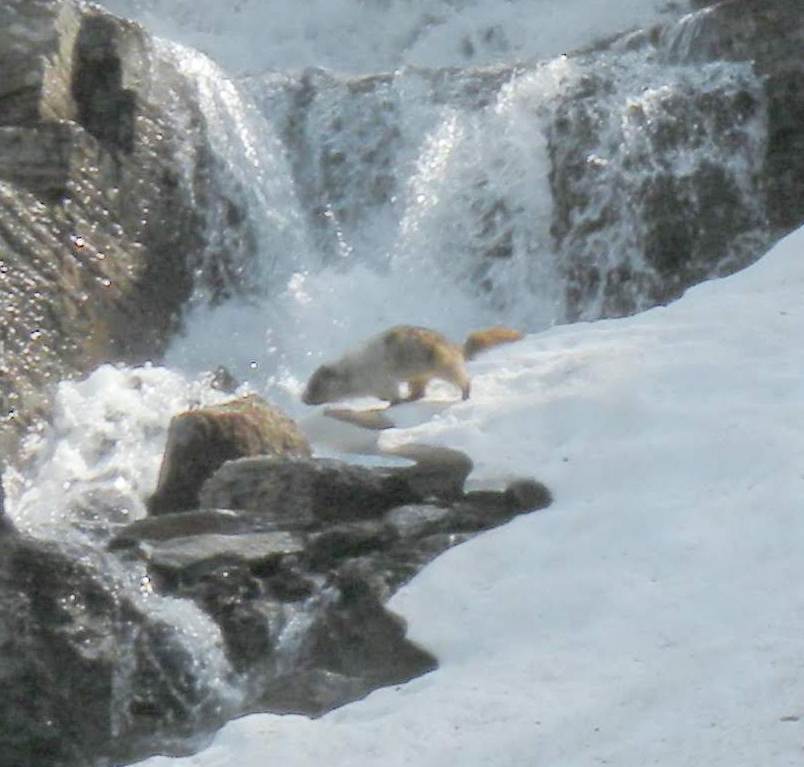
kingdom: Animalia
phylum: Chordata
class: Mammalia
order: Rodentia
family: Sciuridae
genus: Marmota
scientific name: Marmota caligata
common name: Hoary marmot
